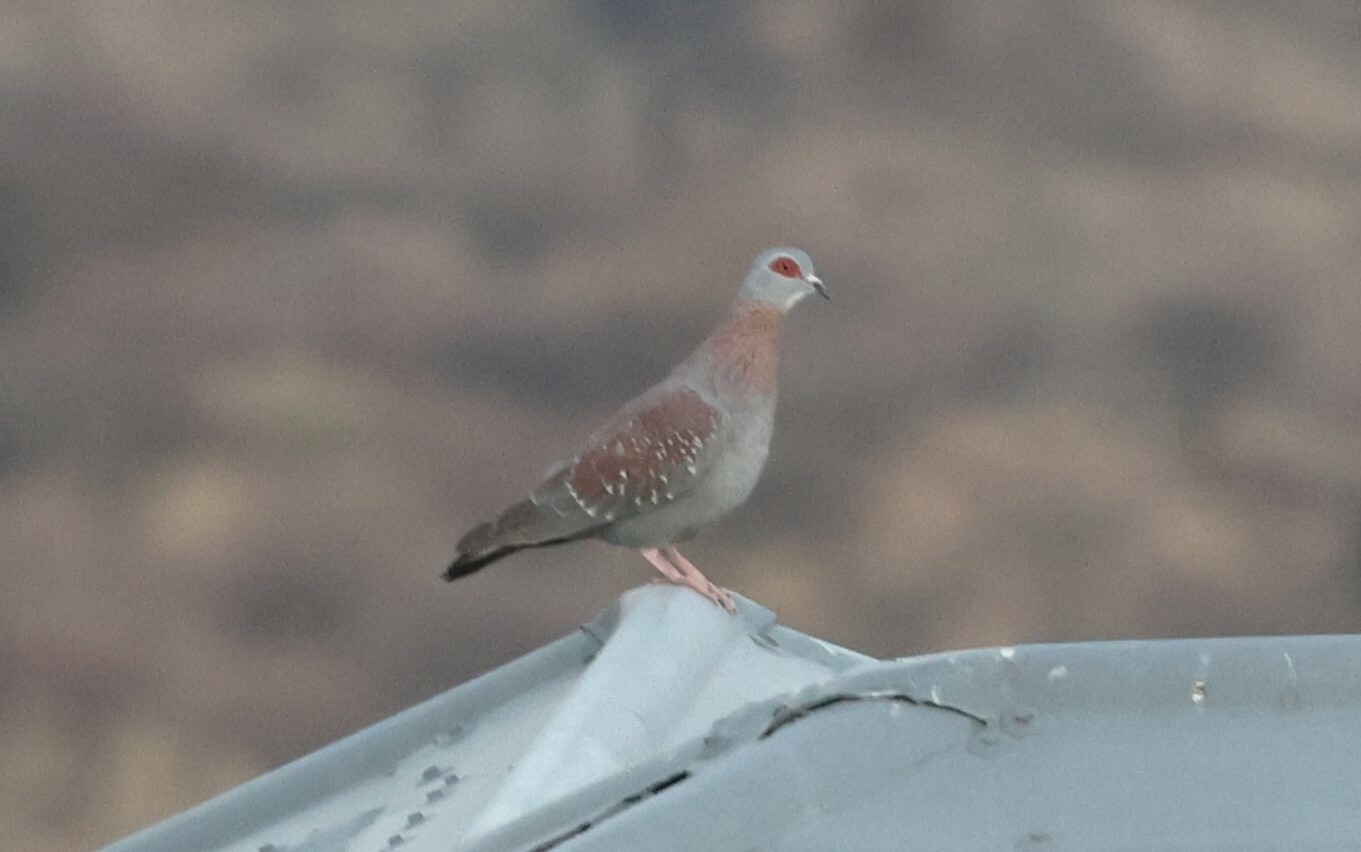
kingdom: Animalia
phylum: Chordata
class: Aves
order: Columbiformes
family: Columbidae
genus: Columba
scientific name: Columba guinea
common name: Speckled pigeon
